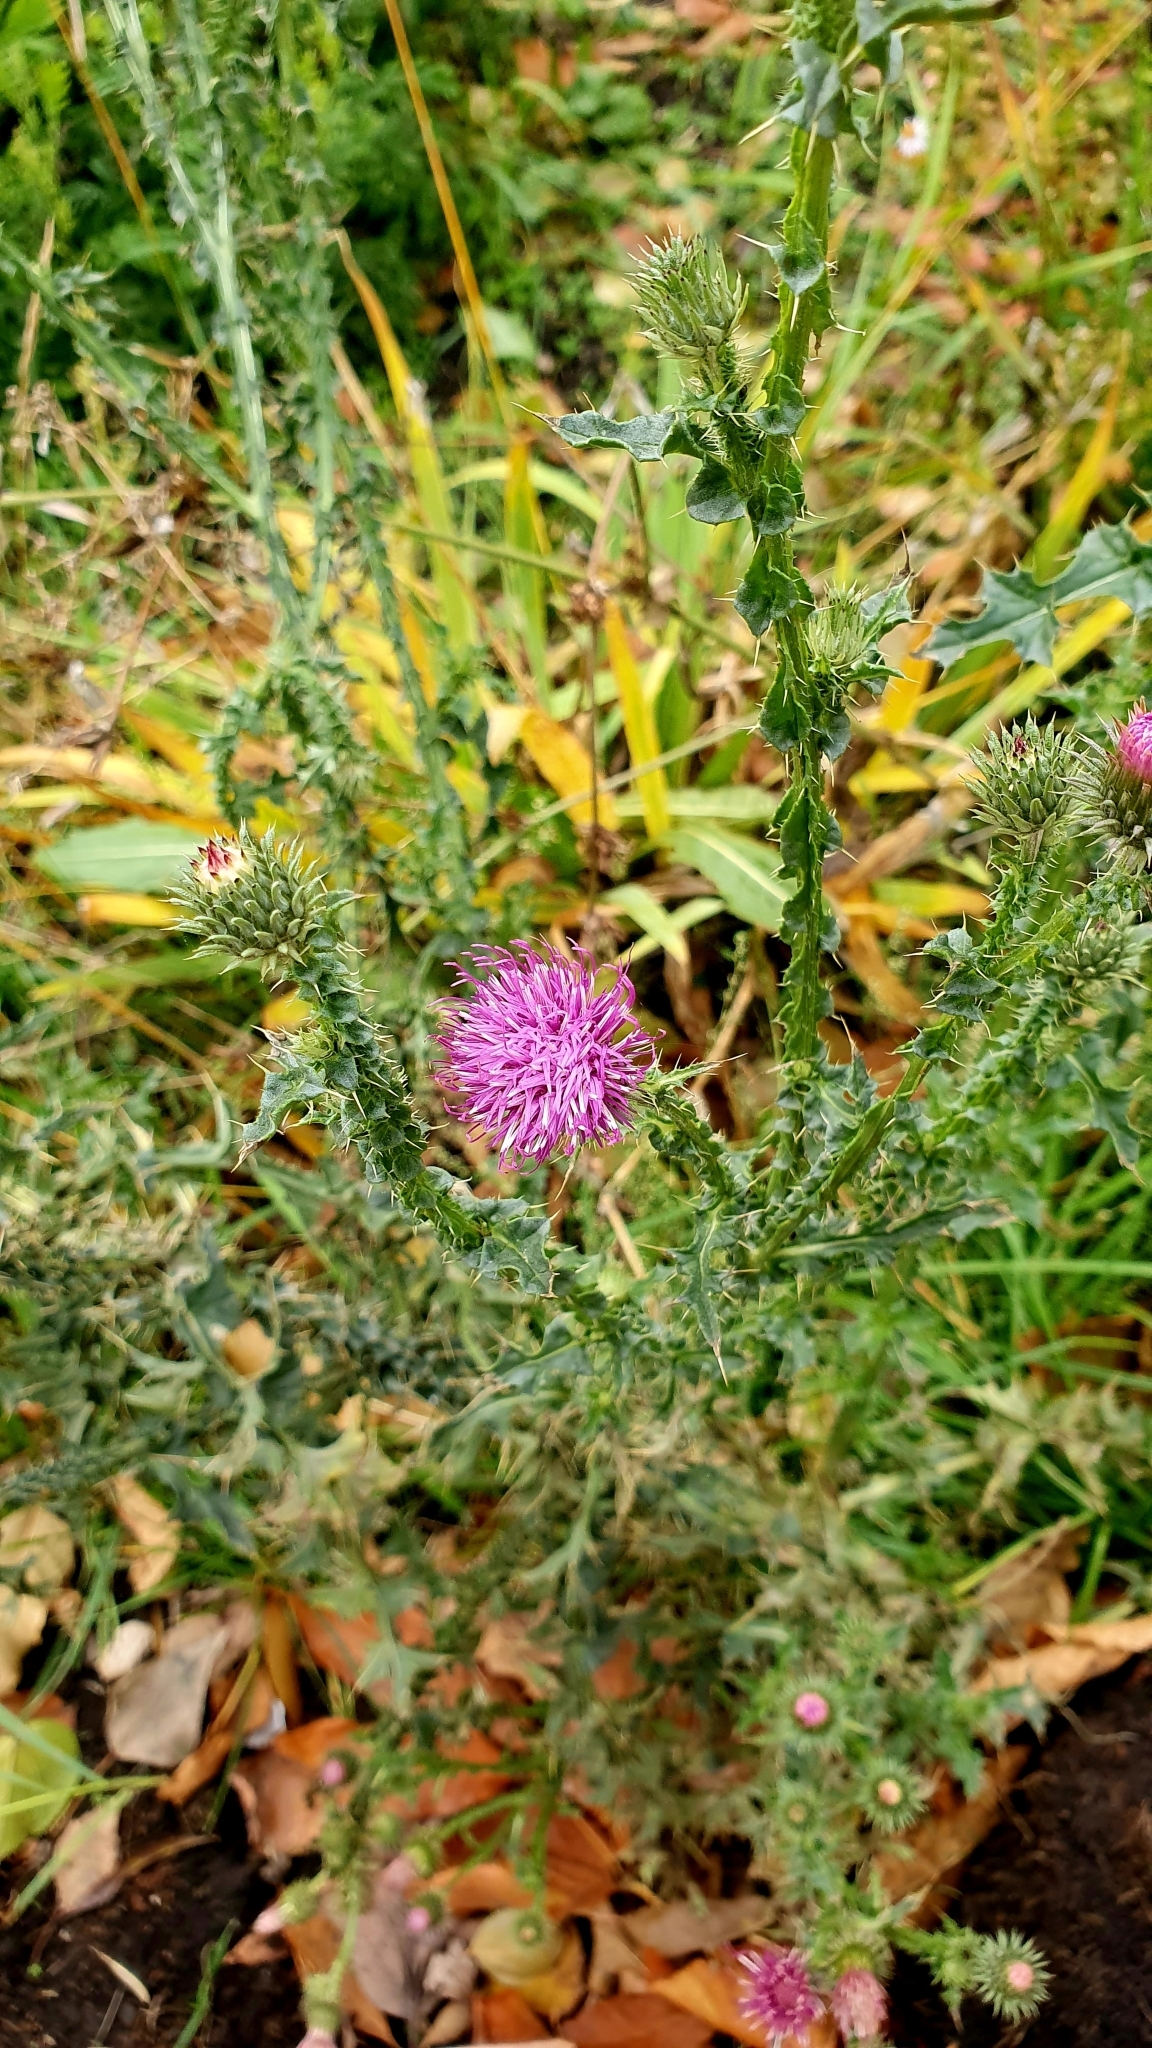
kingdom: Plantae
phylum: Tracheophyta
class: Magnoliopsida
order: Asterales
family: Asteraceae
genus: Carduus
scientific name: Carduus acanthoides
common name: Plumeless thistle
